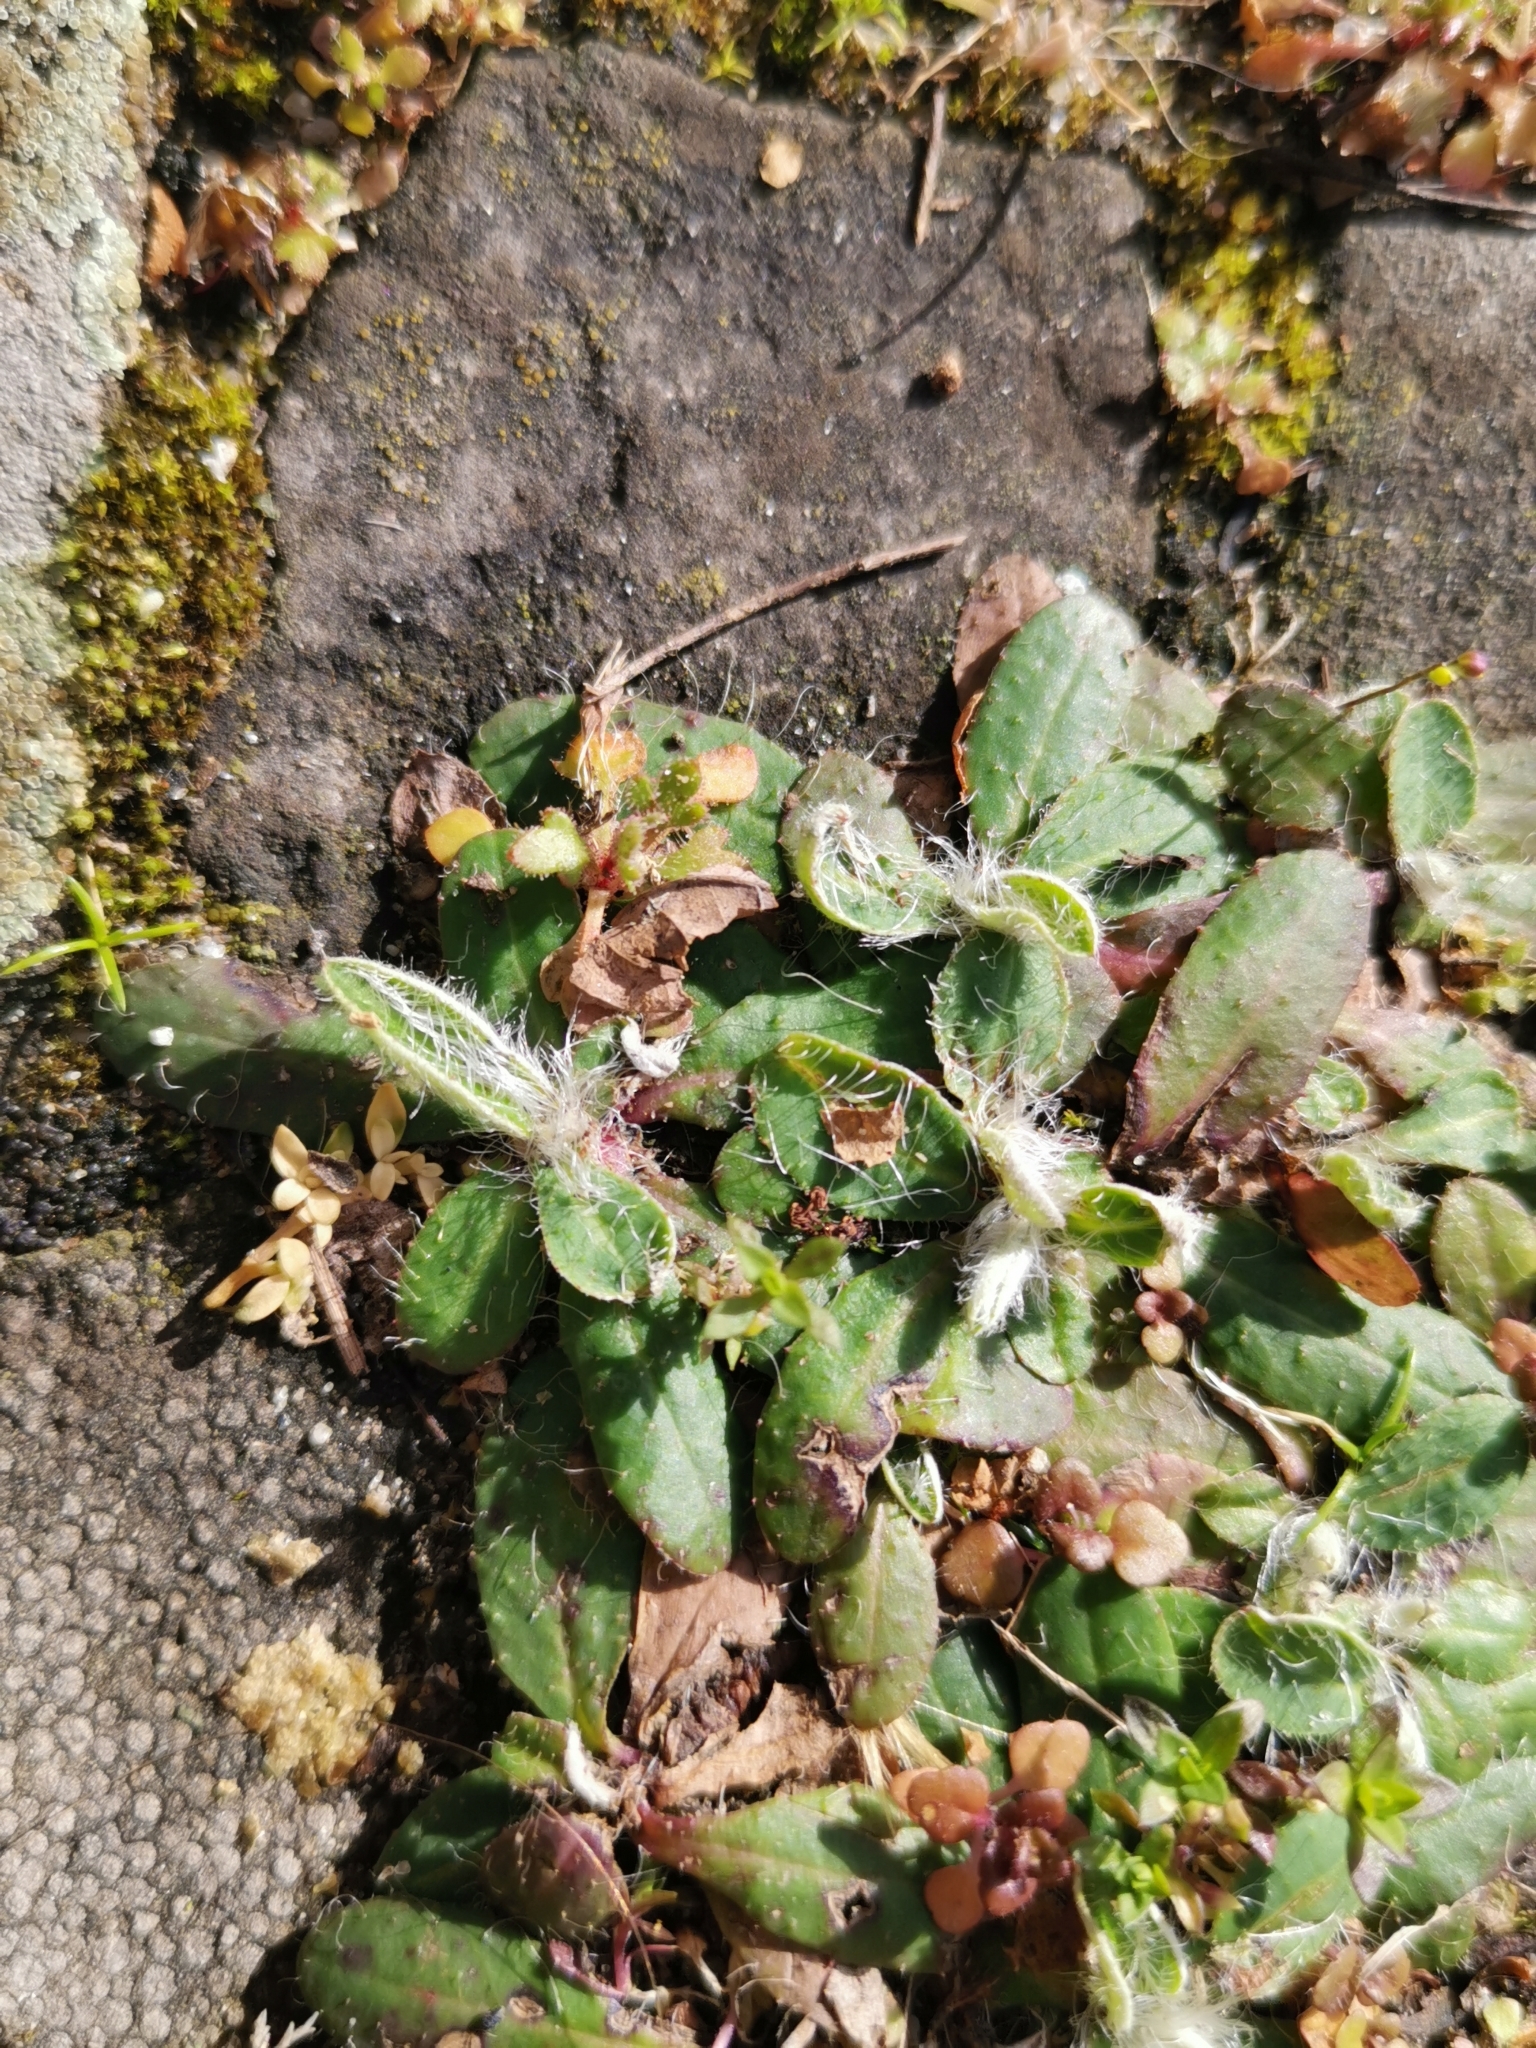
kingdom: Plantae
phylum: Tracheophyta
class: Magnoliopsida
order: Asterales
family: Asteraceae
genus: Pilosella
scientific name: Pilosella officinarum
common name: Mouse-ear hawkweed
